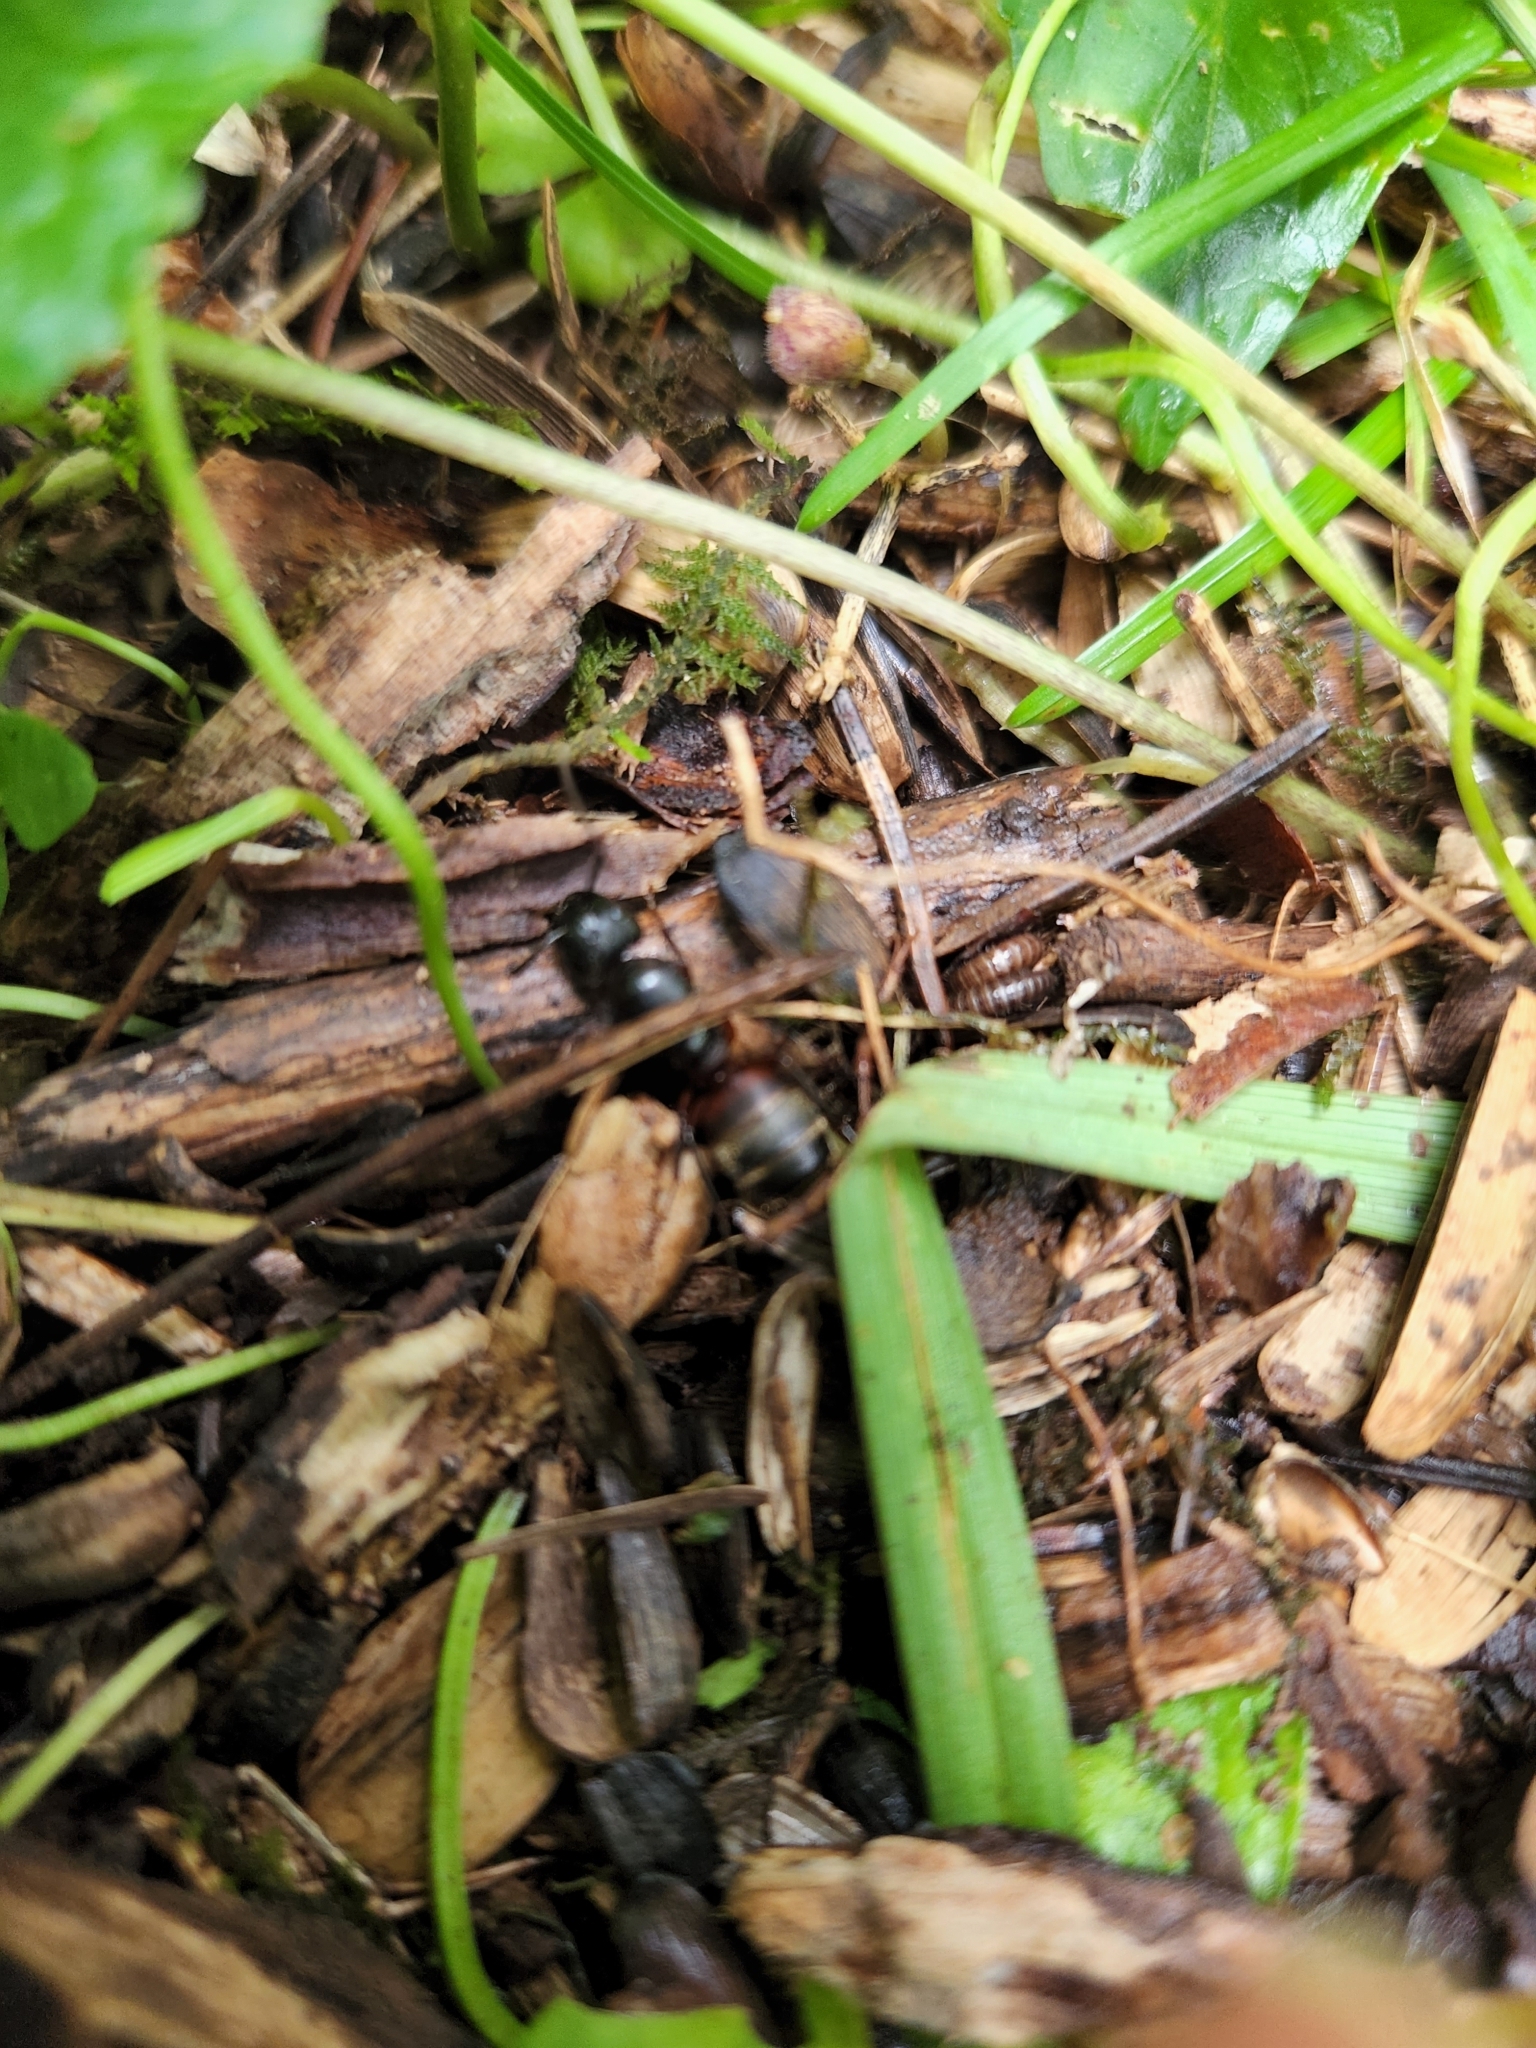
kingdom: Animalia
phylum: Arthropoda
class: Insecta
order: Hymenoptera
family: Formicidae
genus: Camponotus
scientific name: Camponotus chromaiodes
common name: Red carpenter ant
